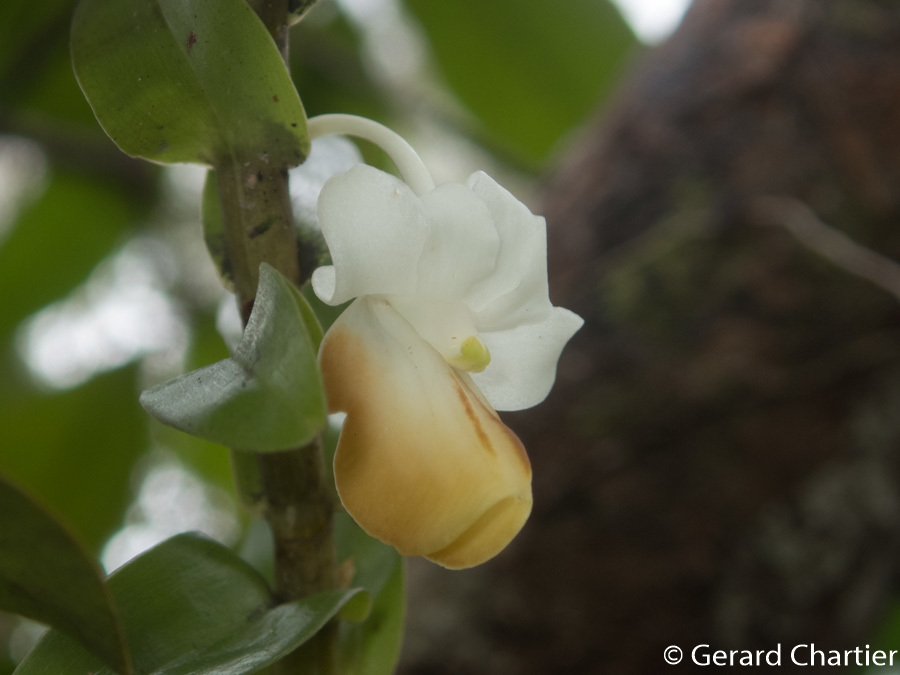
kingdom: Plantae
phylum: Tracheophyta
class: Liliopsida
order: Asparagales
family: Orchidaceae
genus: Dendrobium
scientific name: Dendrobium ellipsophyllum
